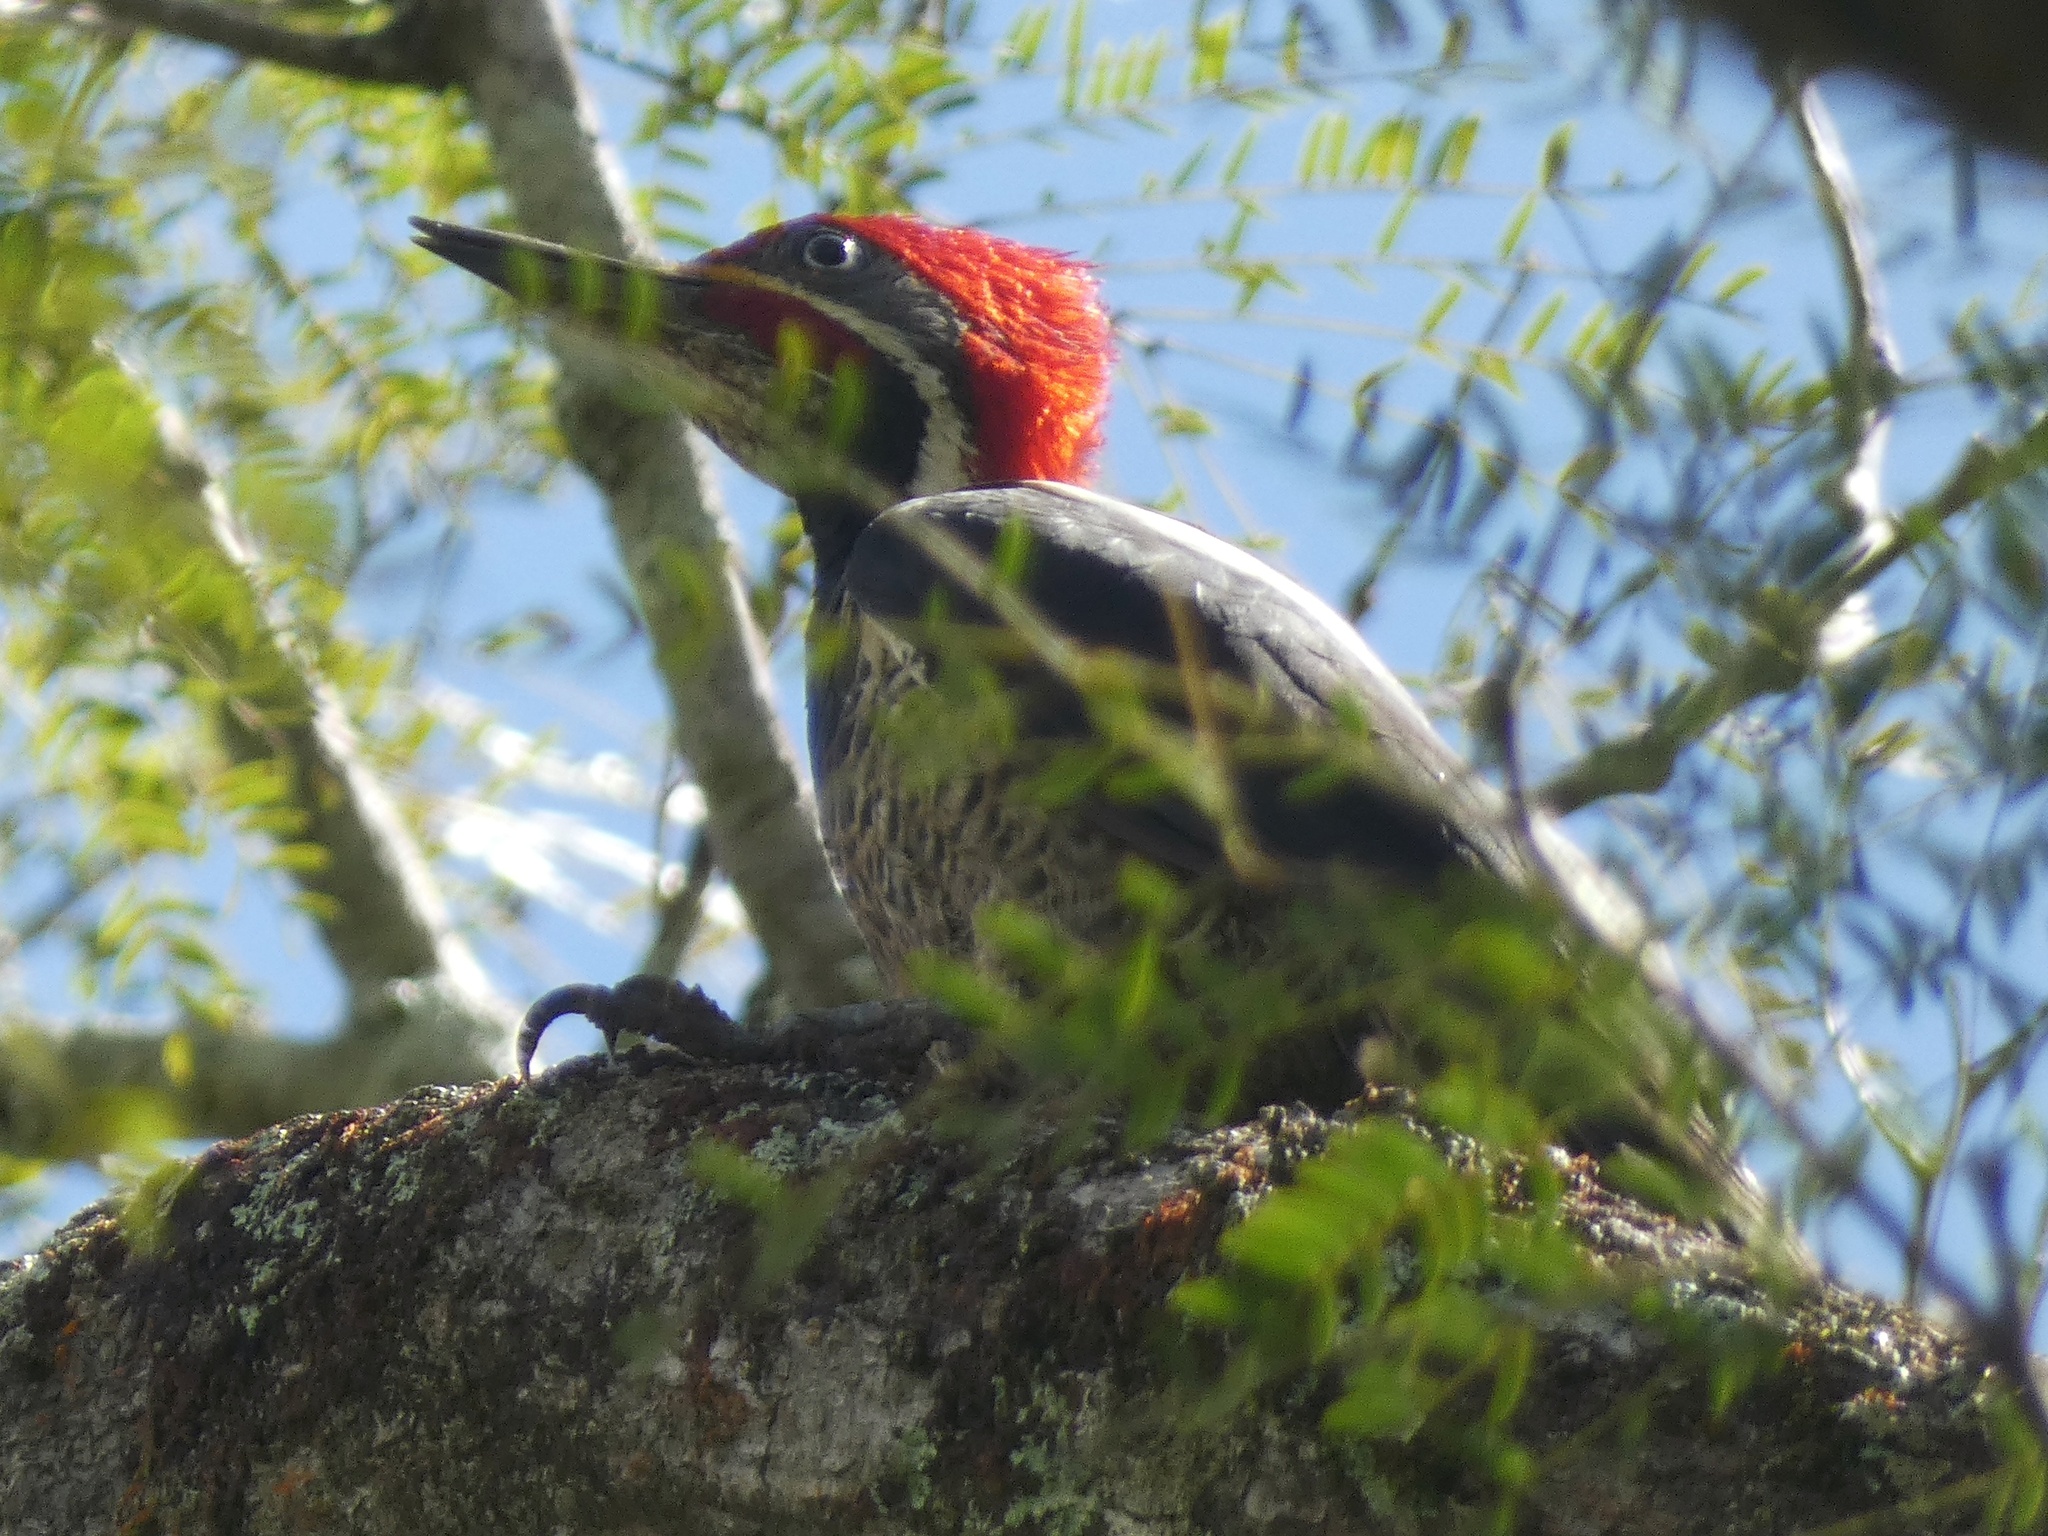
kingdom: Animalia
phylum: Chordata
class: Aves
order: Piciformes
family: Picidae
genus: Dryocopus
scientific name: Dryocopus lineatus
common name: Lineated woodpecker
